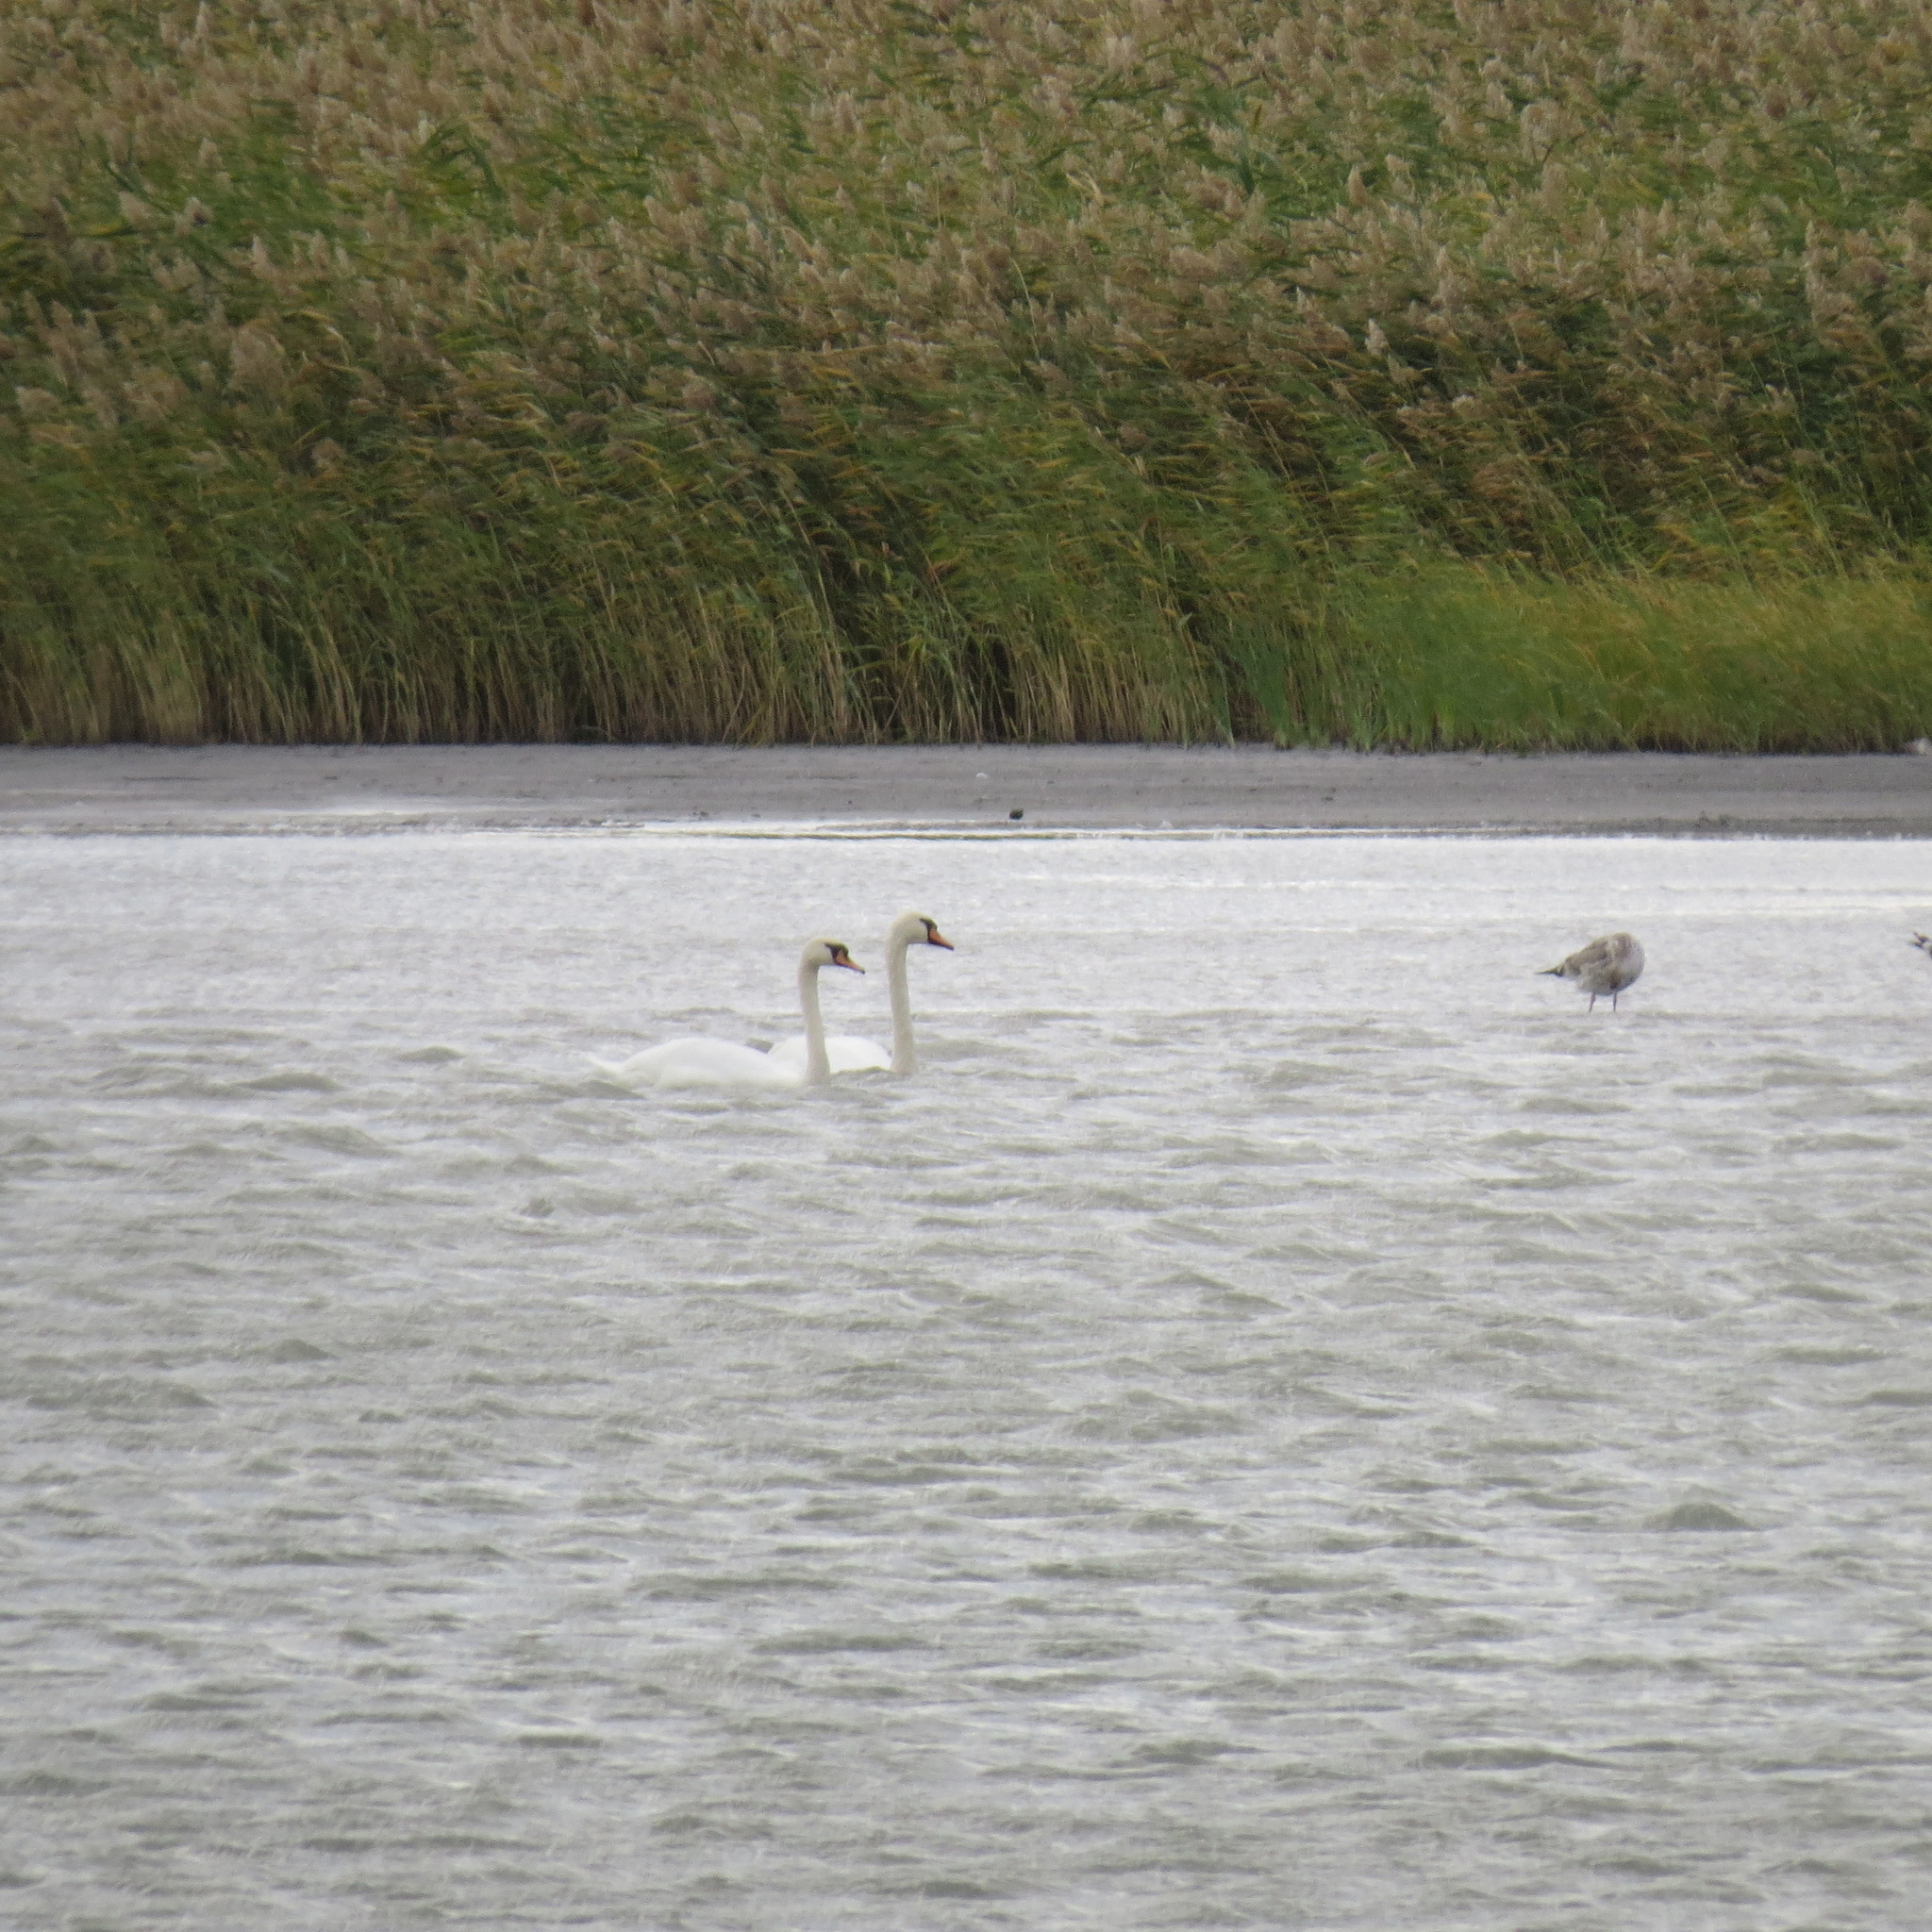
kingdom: Animalia
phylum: Chordata
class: Aves
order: Anseriformes
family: Anatidae
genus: Cygnus
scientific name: Cygnus olor
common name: Mute swan
